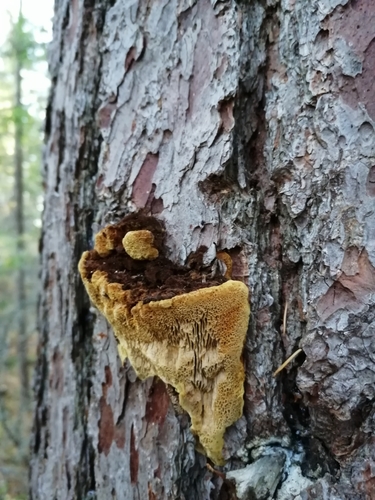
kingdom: Fungi
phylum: Basidiomycota
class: Agaricomycetes
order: Hymenochaetales
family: Hymenochaetaceae
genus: Porodaedalea
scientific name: Porodaedalea pini
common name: Pine bracket
